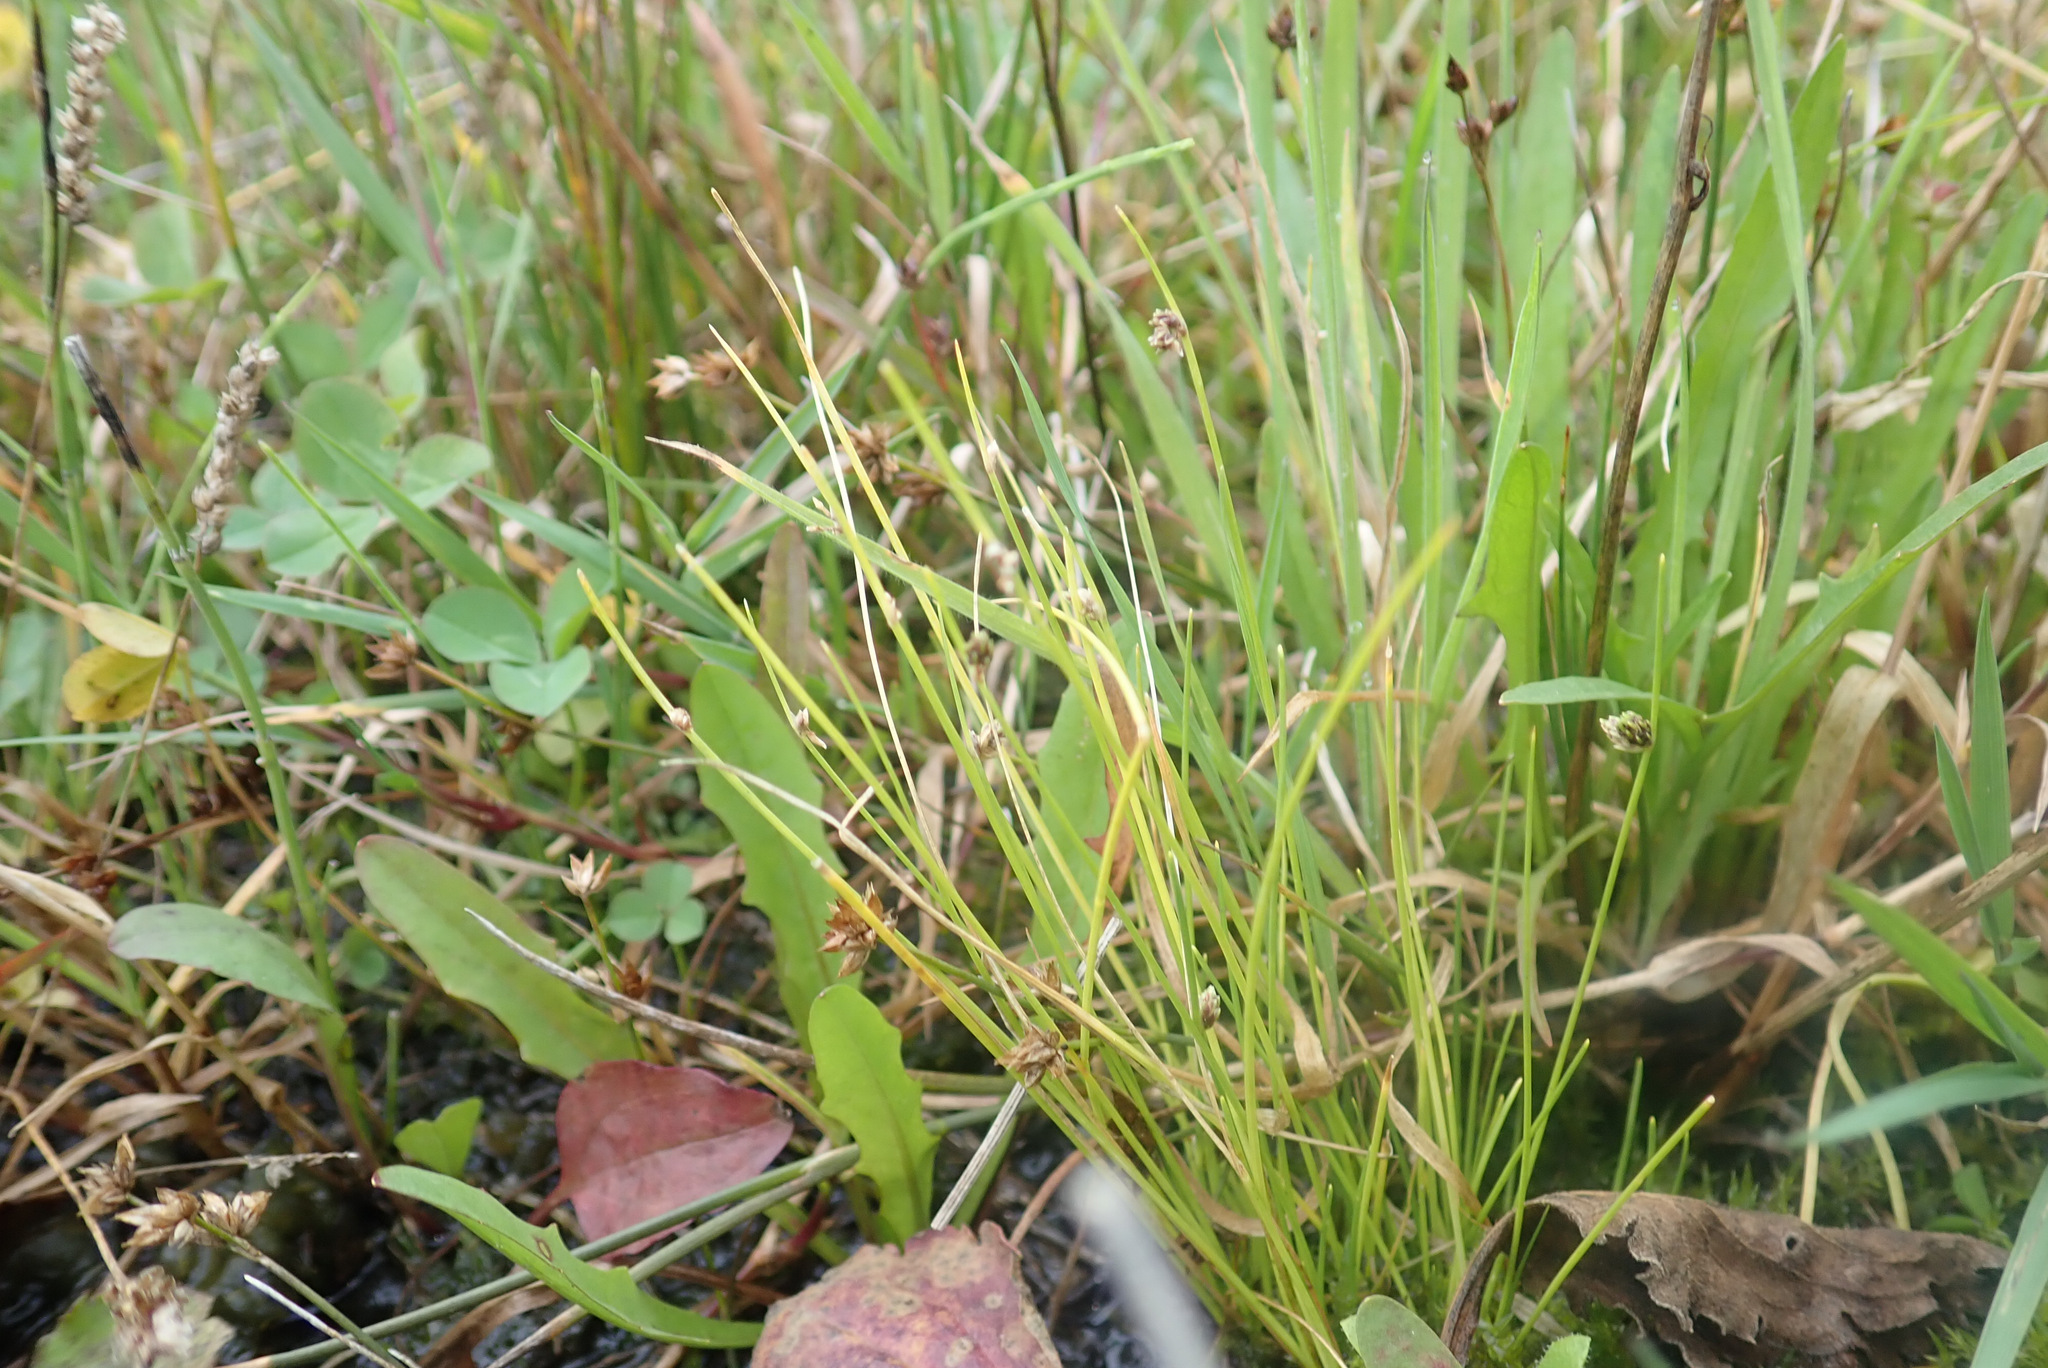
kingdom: Plantae
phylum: Tracheophyta
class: Liliopsida
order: Poales
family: Cyperaceae
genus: Isolepis
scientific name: Isolepis setacea
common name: Bristle club-rush
